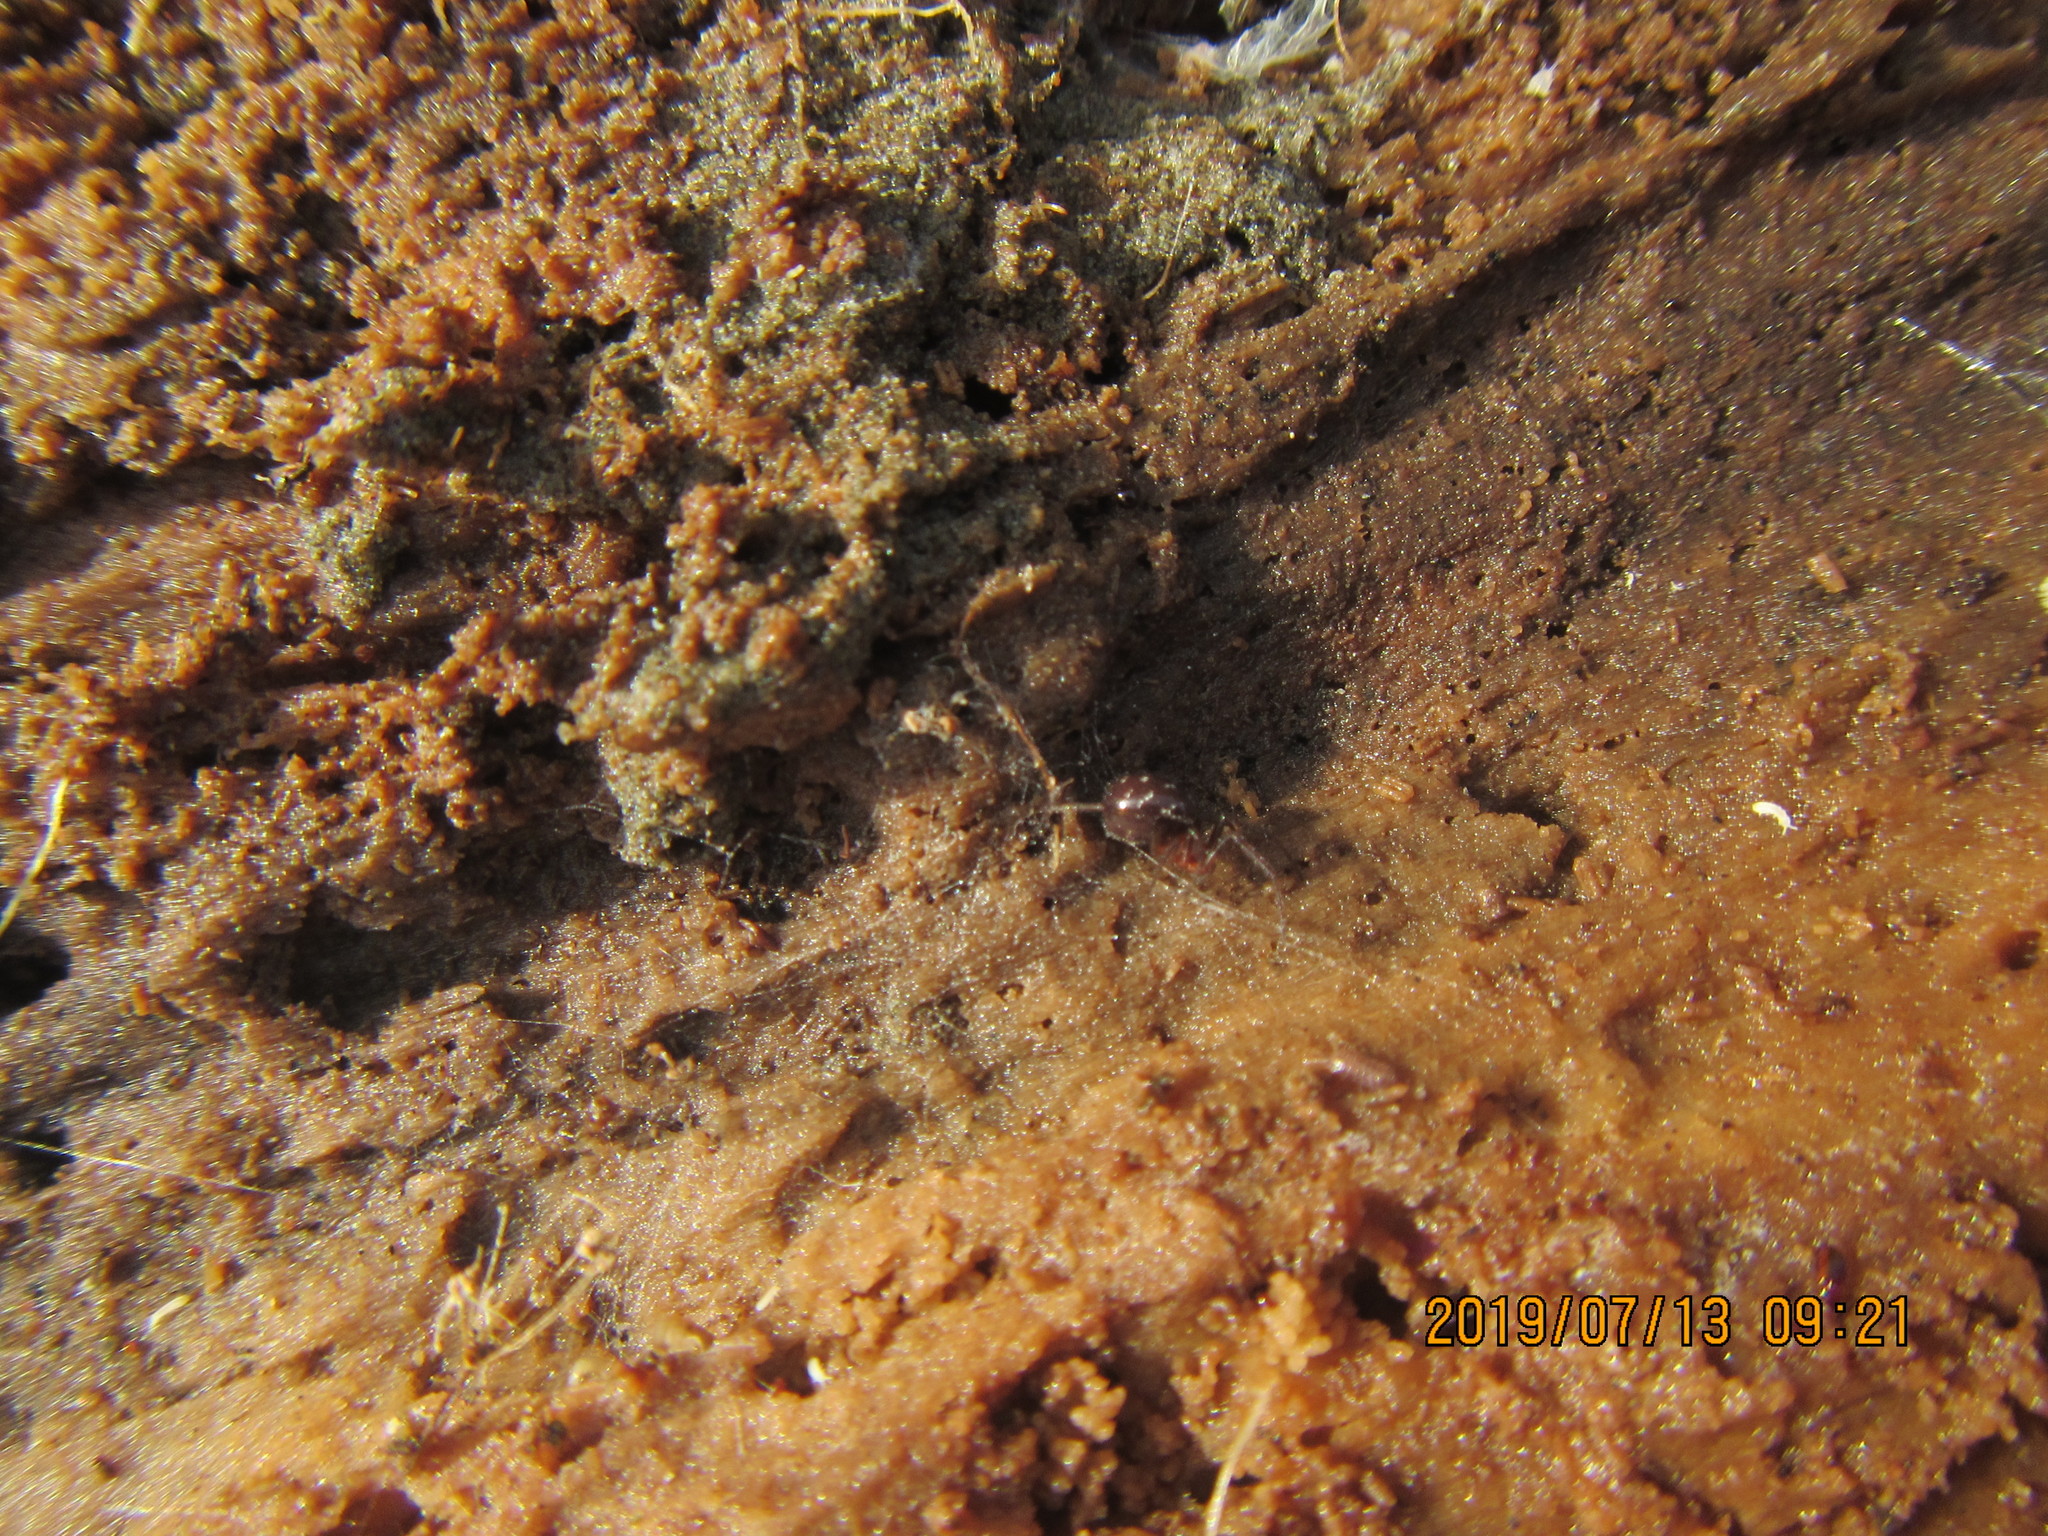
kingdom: Animalia
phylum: Arthropoda
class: Arachnida
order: Araneae
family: Theridiidae
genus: Steatoda
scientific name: Steatoda capensis
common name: Cobweb weaver
